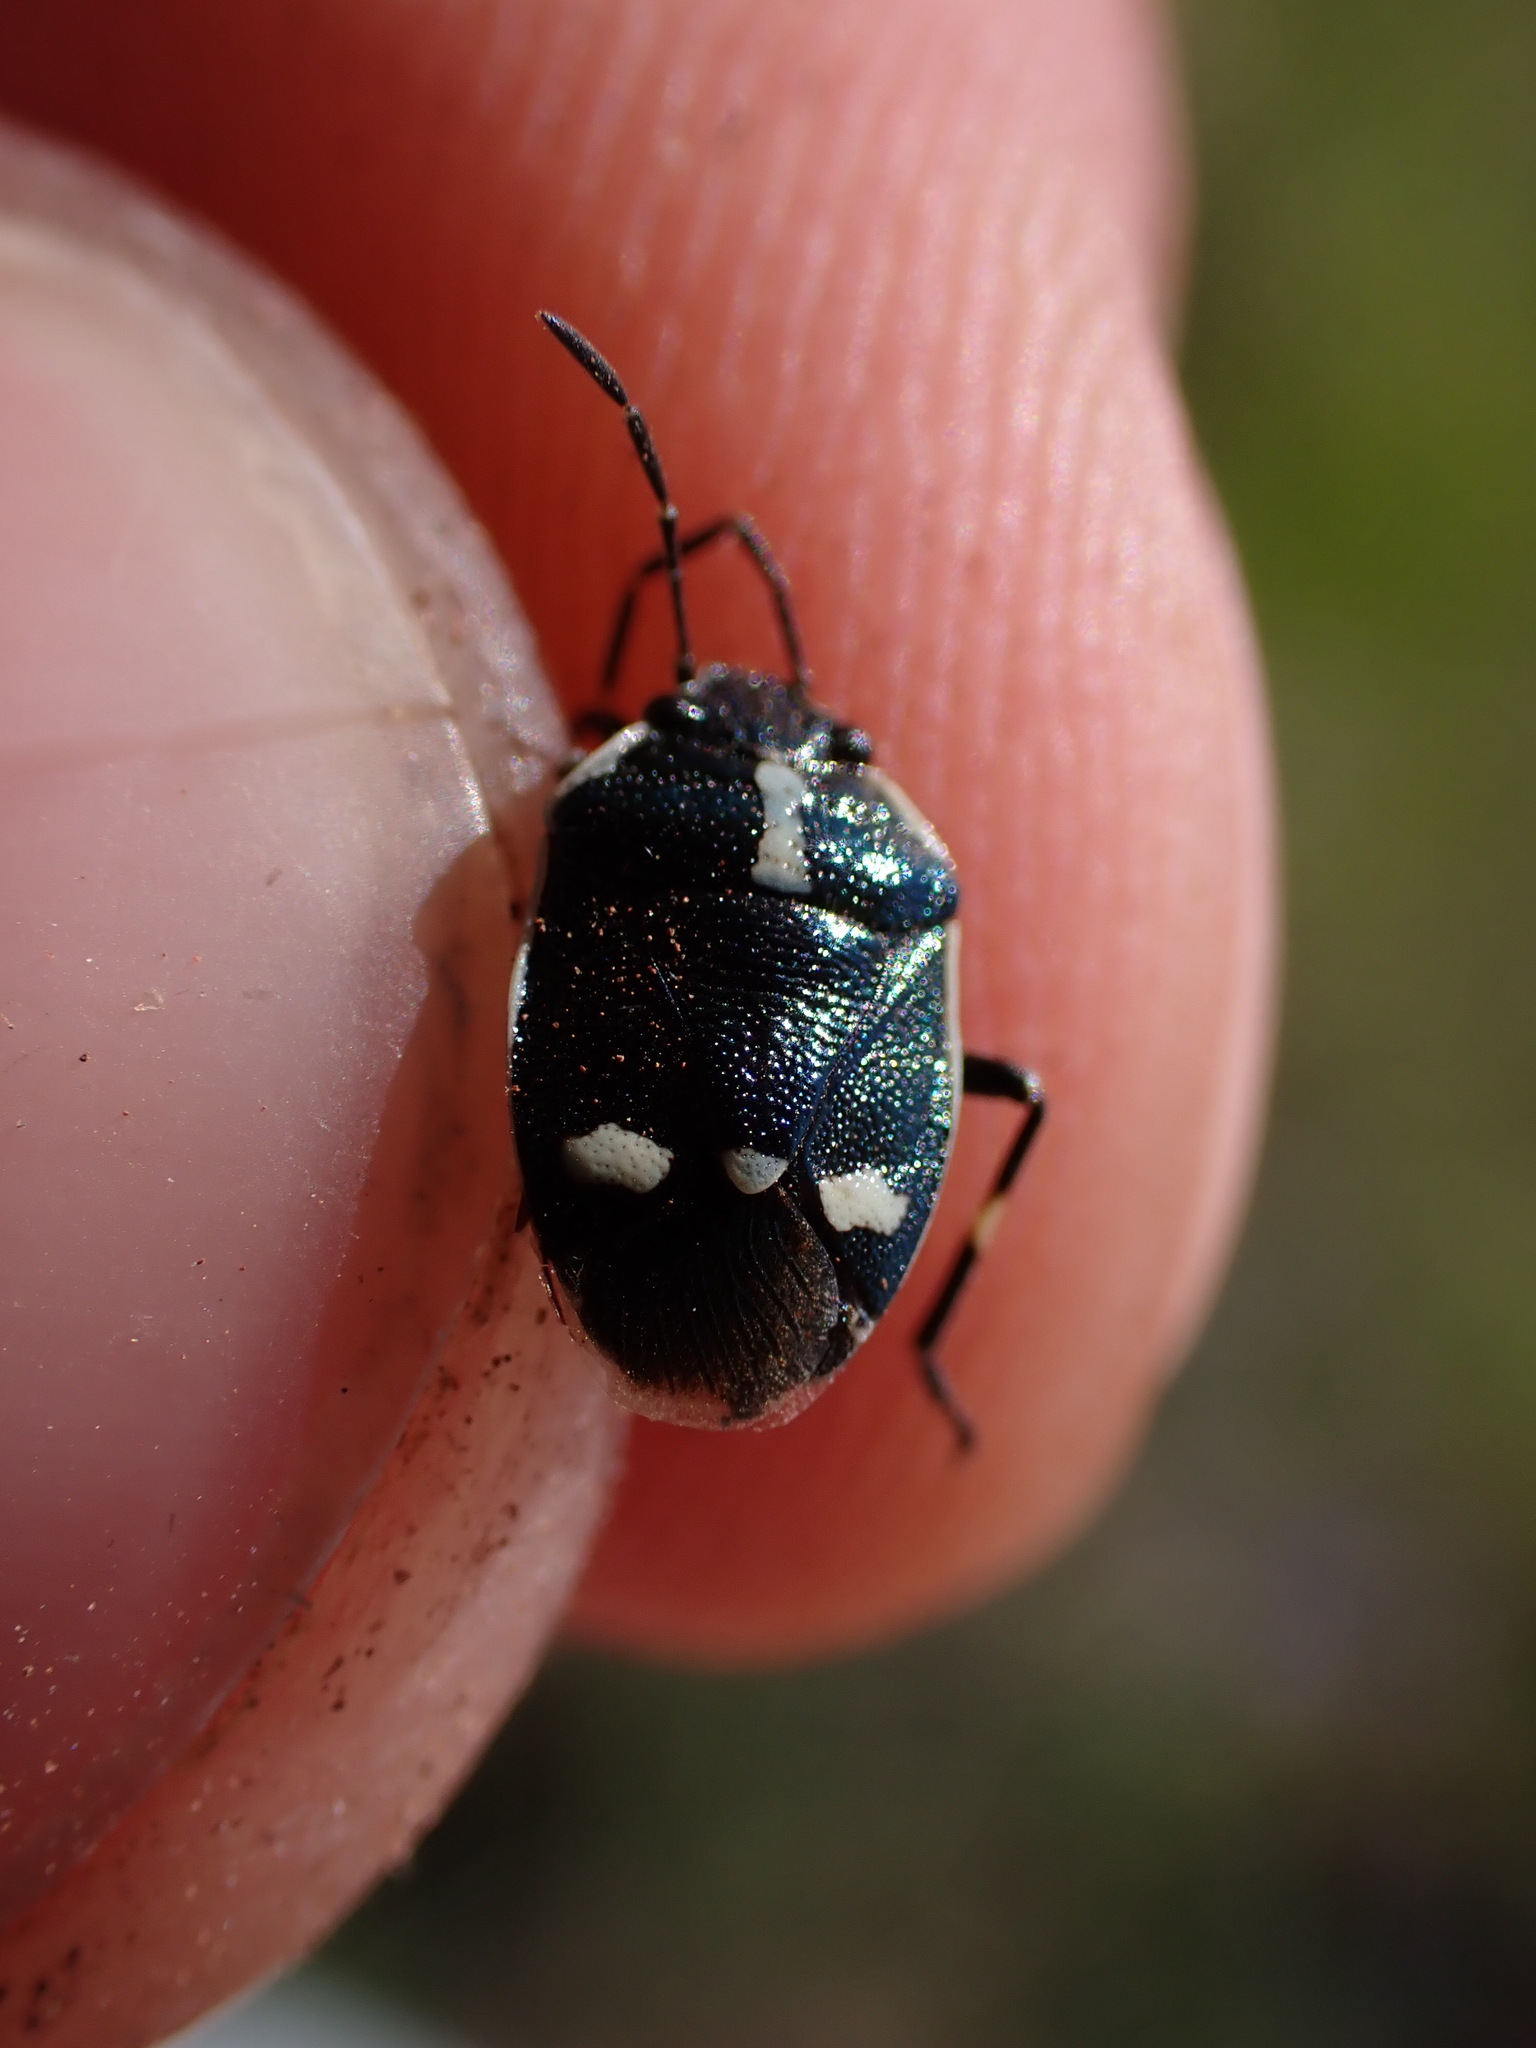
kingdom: Animalia
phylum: Arthropoda
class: Insecta
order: Hemiptera
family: Pentatomidae
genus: Eurydema
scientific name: Eurydema oleracea
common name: Cabbage bug
